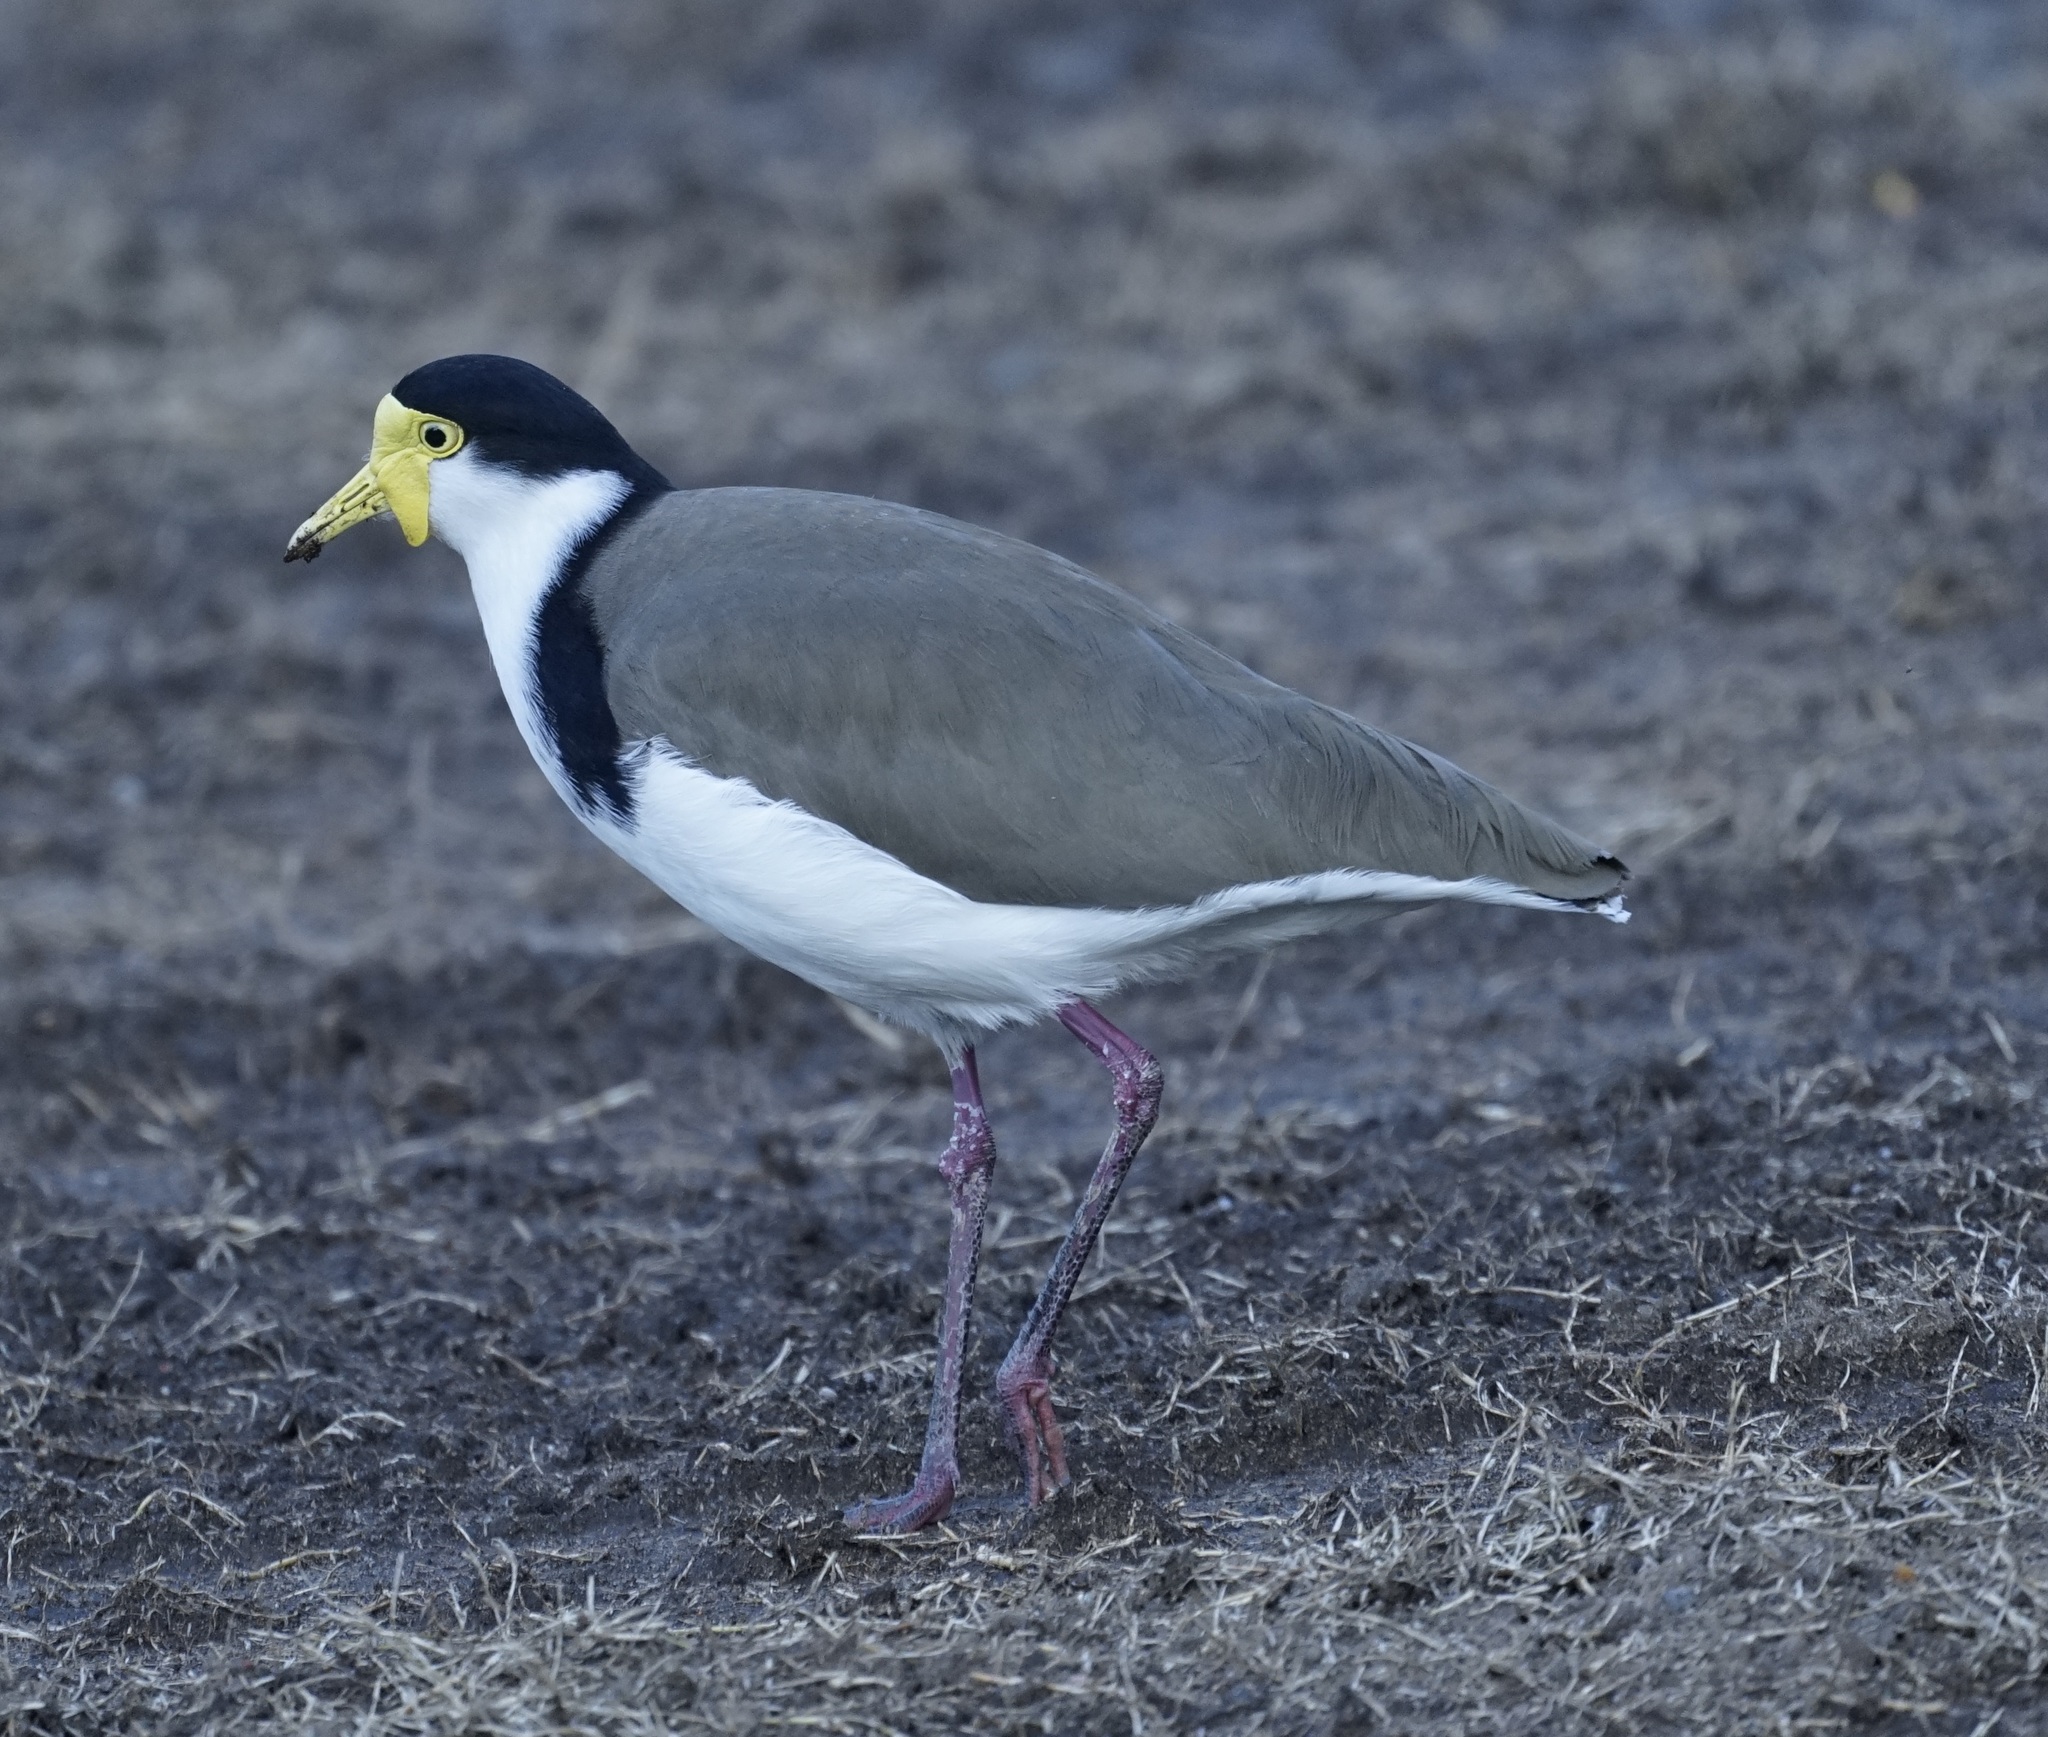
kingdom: Animalia
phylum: Chordata
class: Aves
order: Charadriiformes
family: Charadriidae
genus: Vanellus
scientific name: Vanellus miles
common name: Masked lapwing
